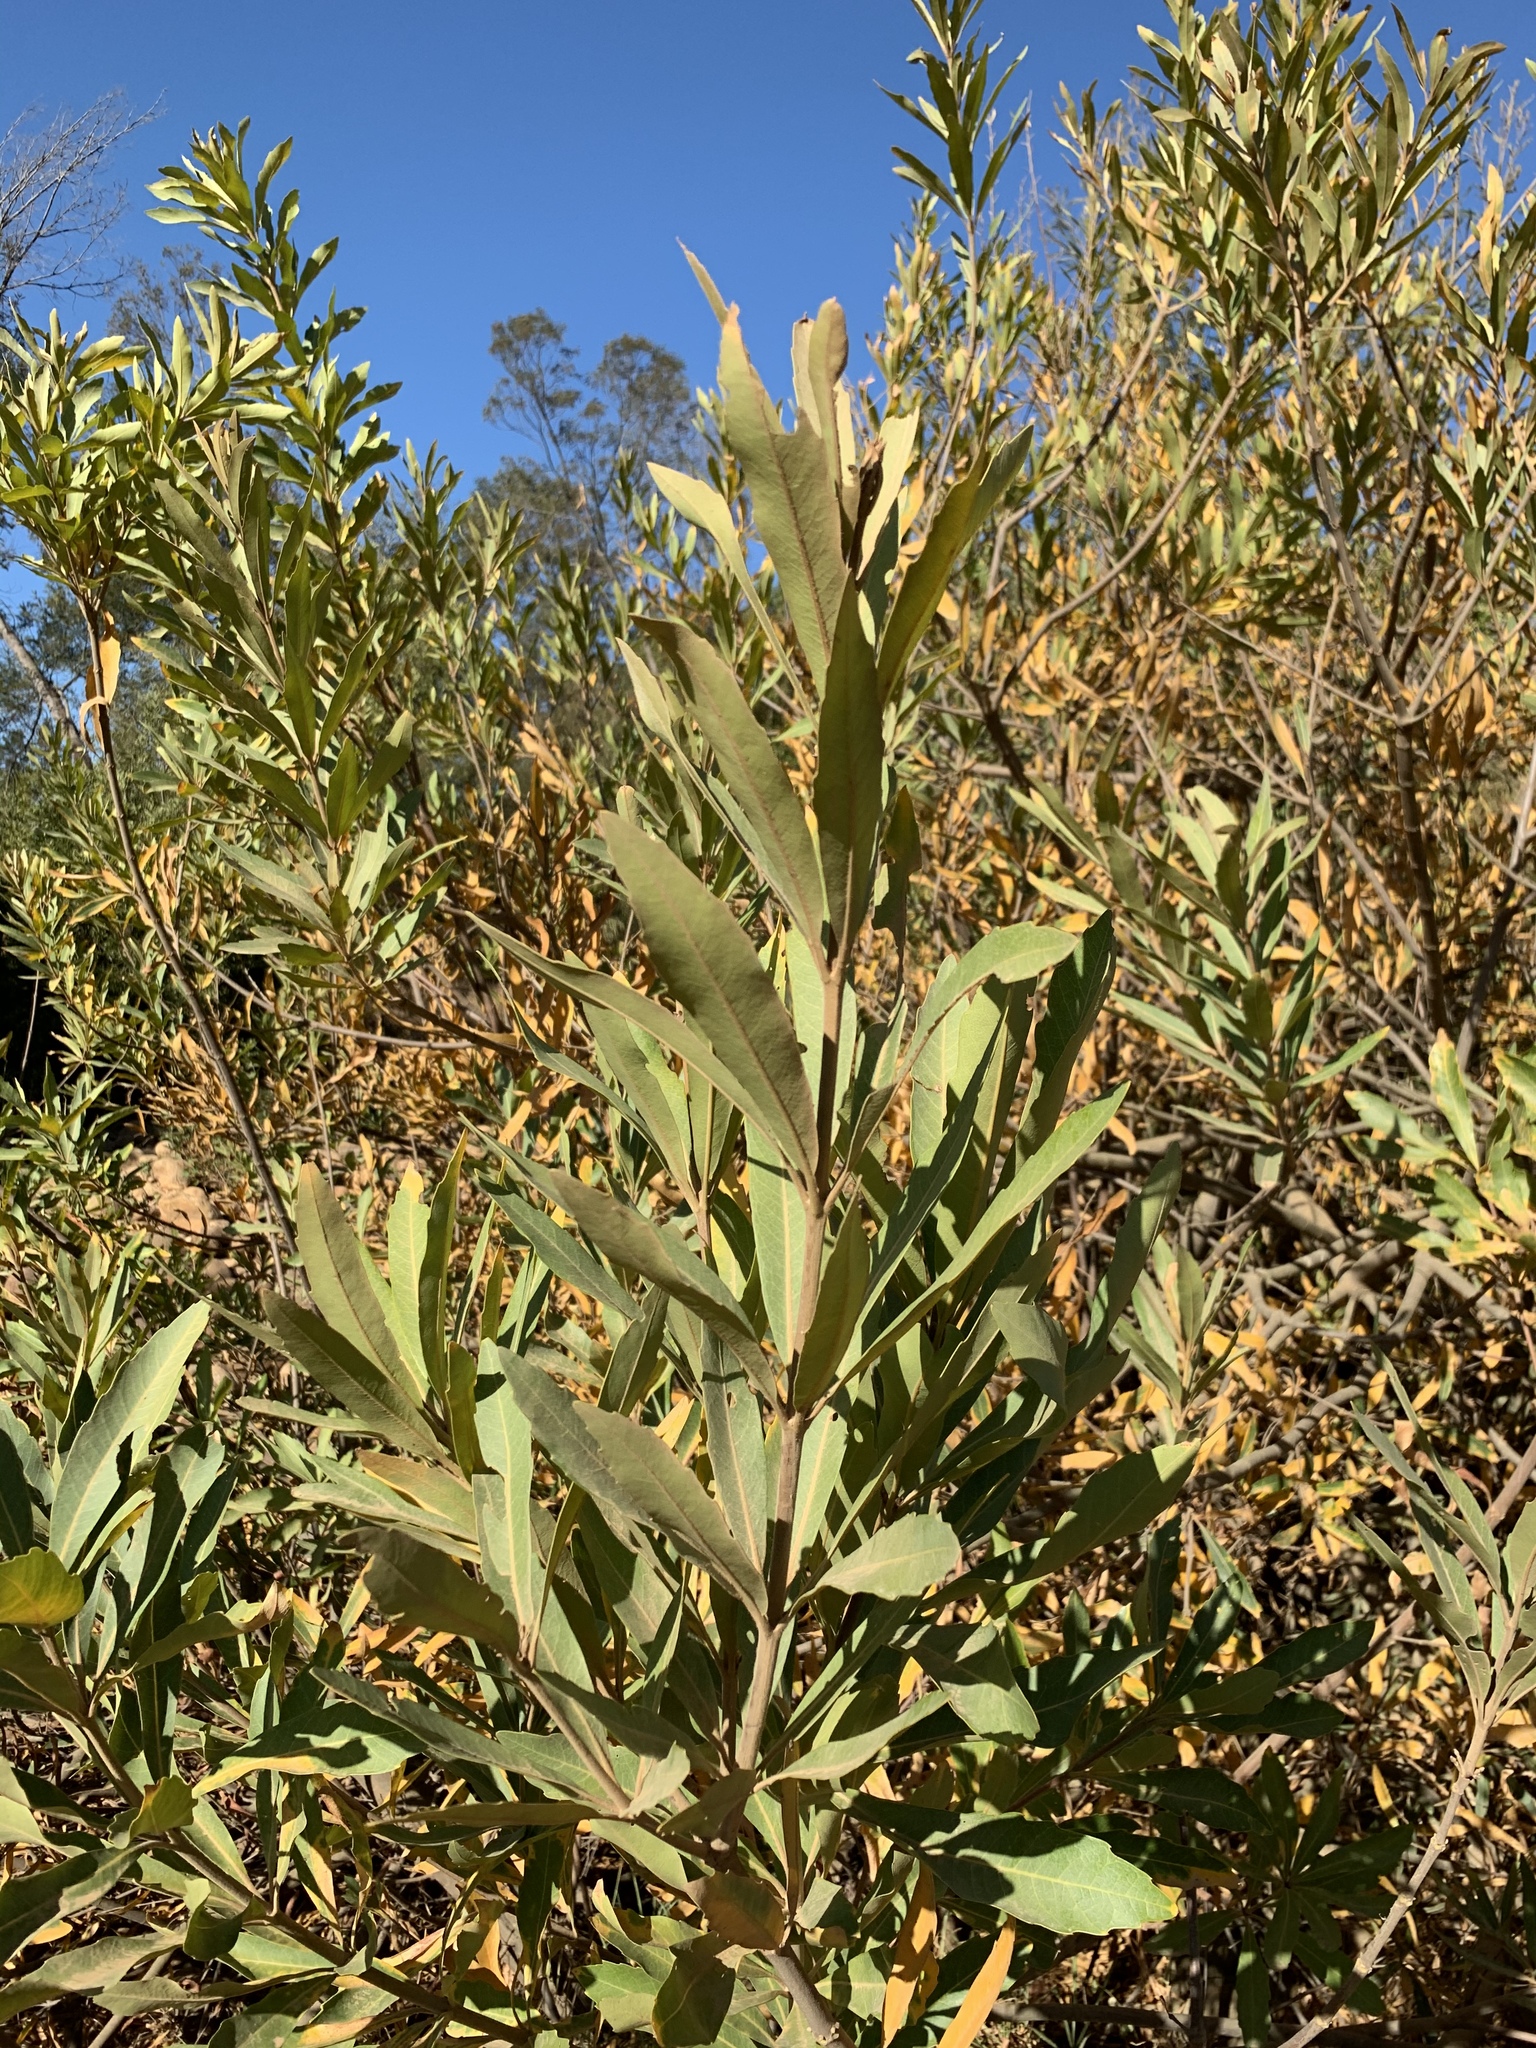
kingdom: Plantae
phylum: Tracheophyta
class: Magnoliopsida
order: Proteales
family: Proteaceae
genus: Brabejum
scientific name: Brabejum stellatifolium
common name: Wild almond
